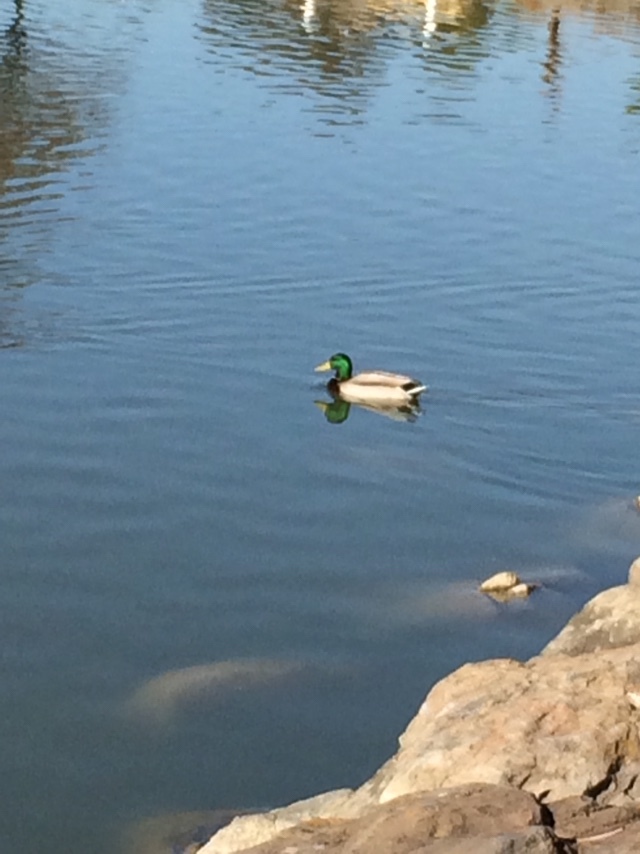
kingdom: Animalia
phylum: Chordata
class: Aves
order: Anseriformes
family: Anatidae
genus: Anas
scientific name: Anas platyrhynchos
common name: Mallard
